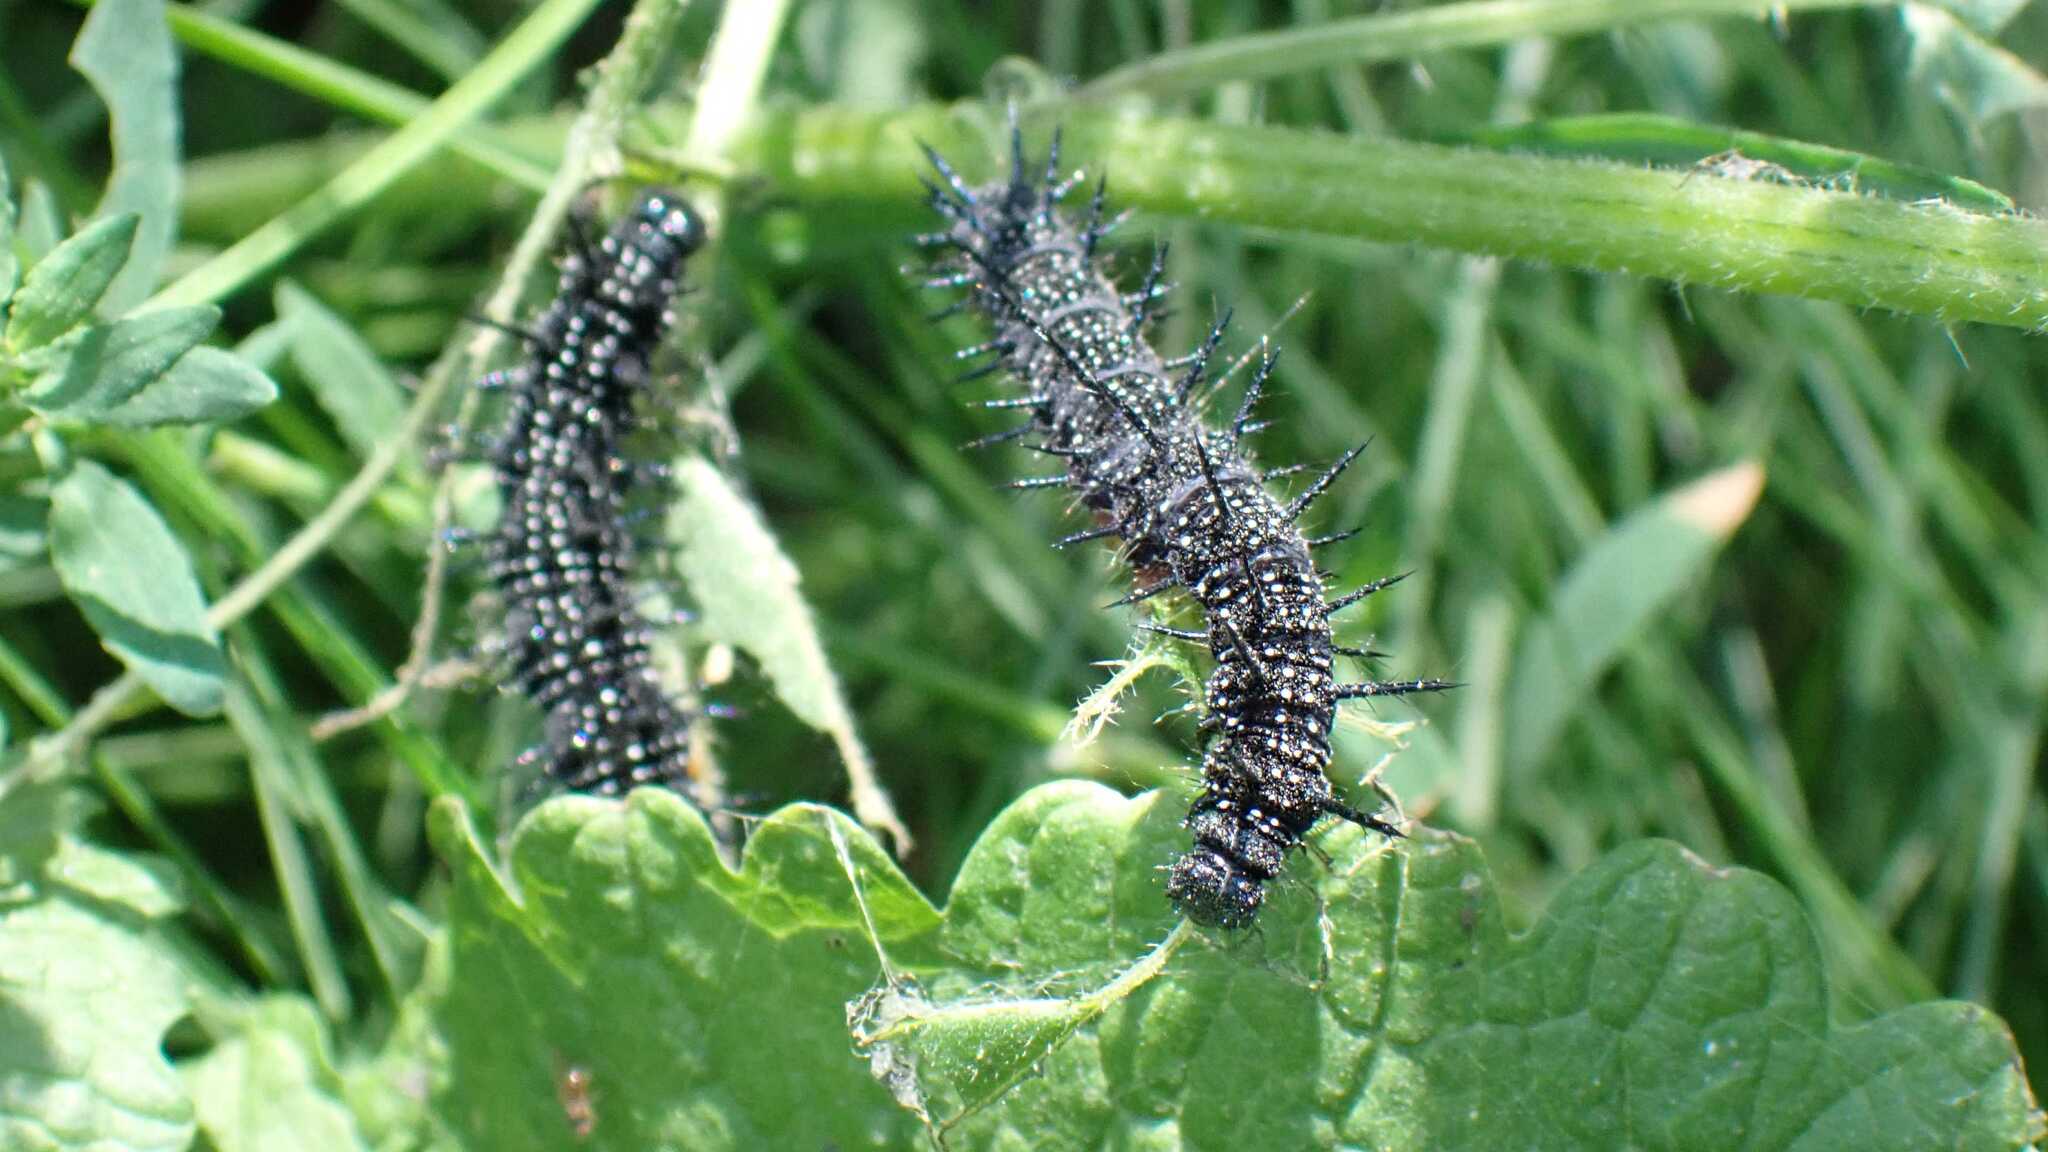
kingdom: Animalia
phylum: Arthropoda
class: Insecta
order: Lepidoptera
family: Nymphalidae
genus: Aglais
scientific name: Aglais io
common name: Peacock
